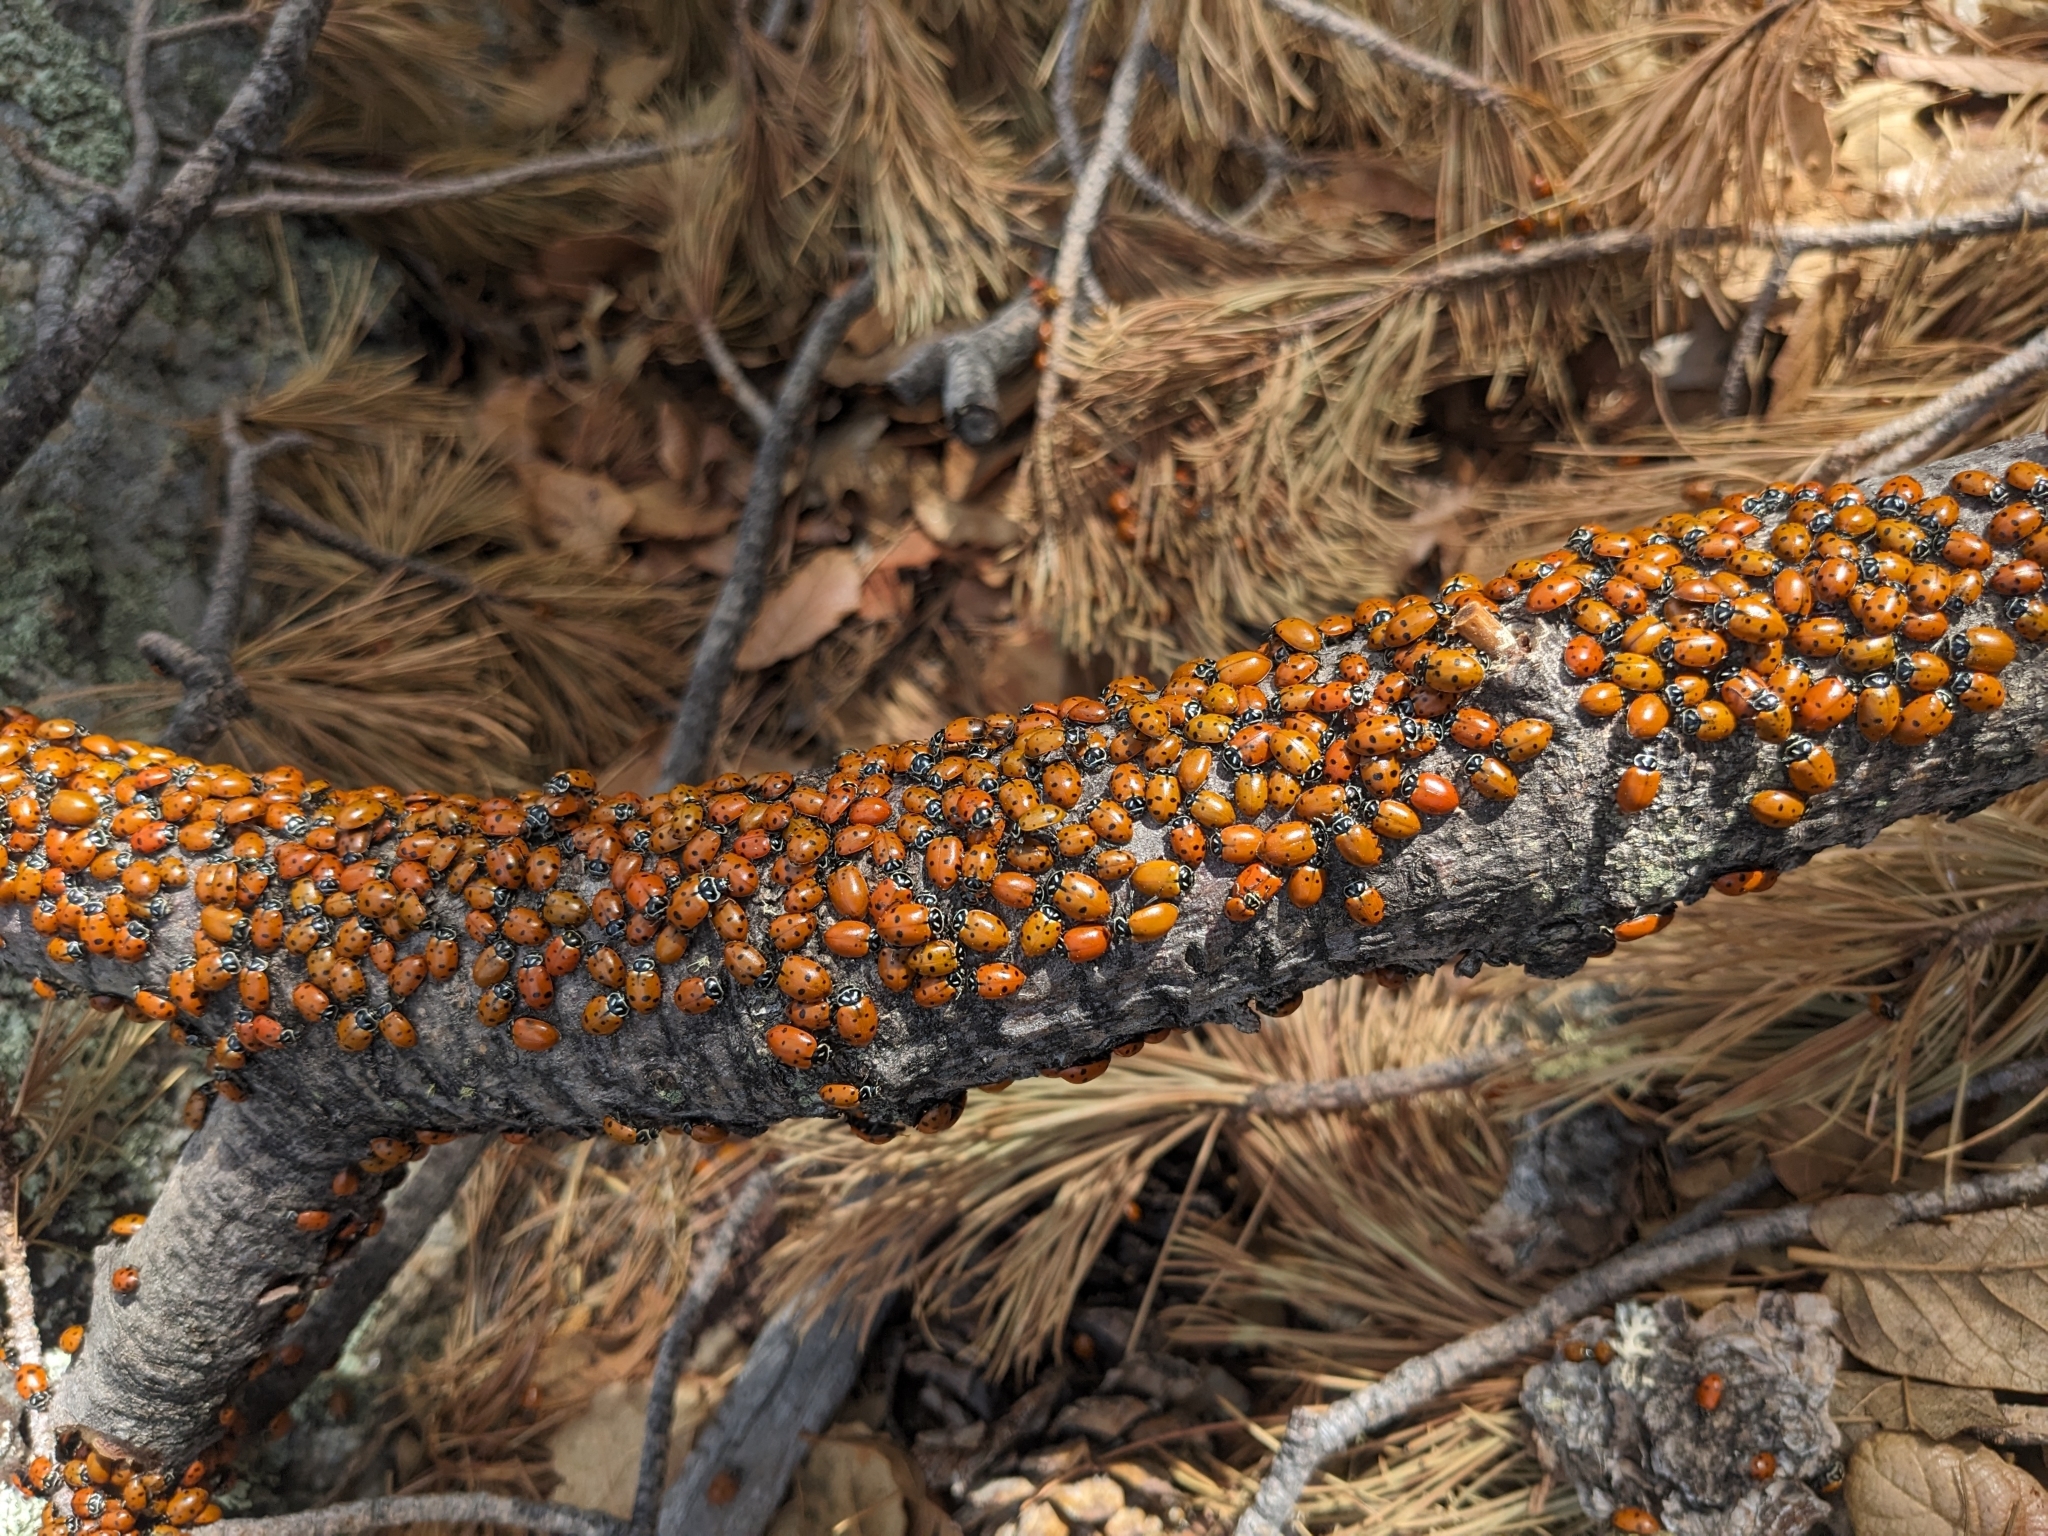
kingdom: Animalia
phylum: Arthropoda
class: Insecta
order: Coleoptera
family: Coccinellidae
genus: Hippodamia
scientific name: Hippodamia convergens
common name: Convergent lady beetle
